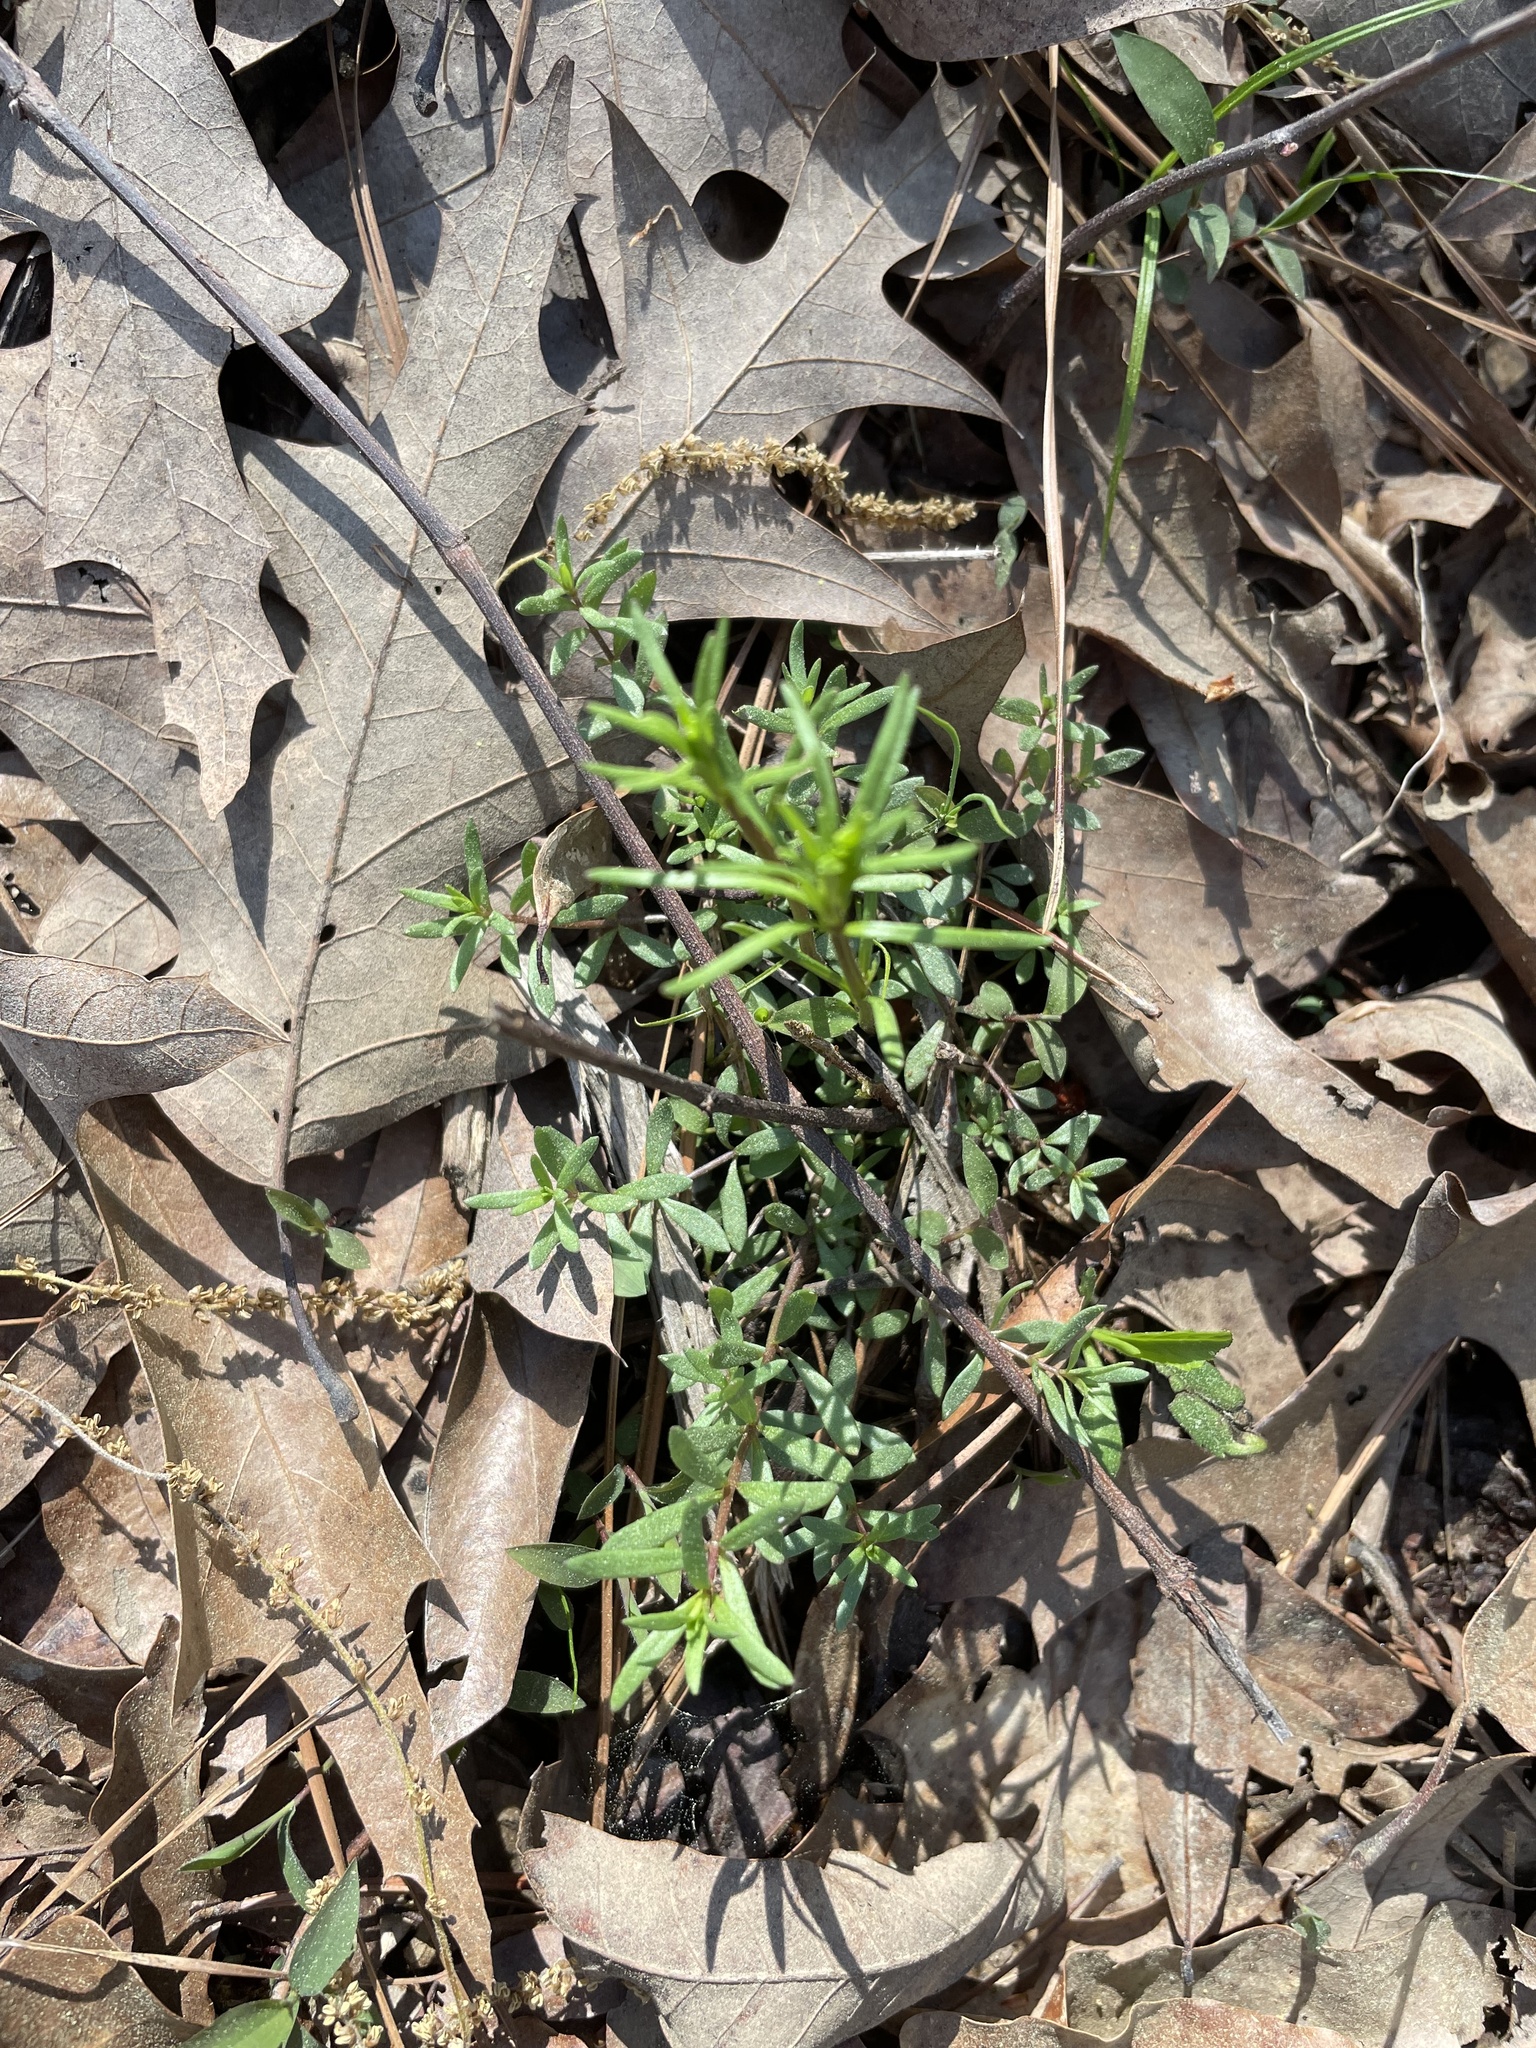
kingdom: Plantae
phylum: Tracheophyta
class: Magnoliopsida
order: Lamiales
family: Plantaginaceae
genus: Nuttallanthus
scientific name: Nuttallanthus canadensis
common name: Blue toadflax
